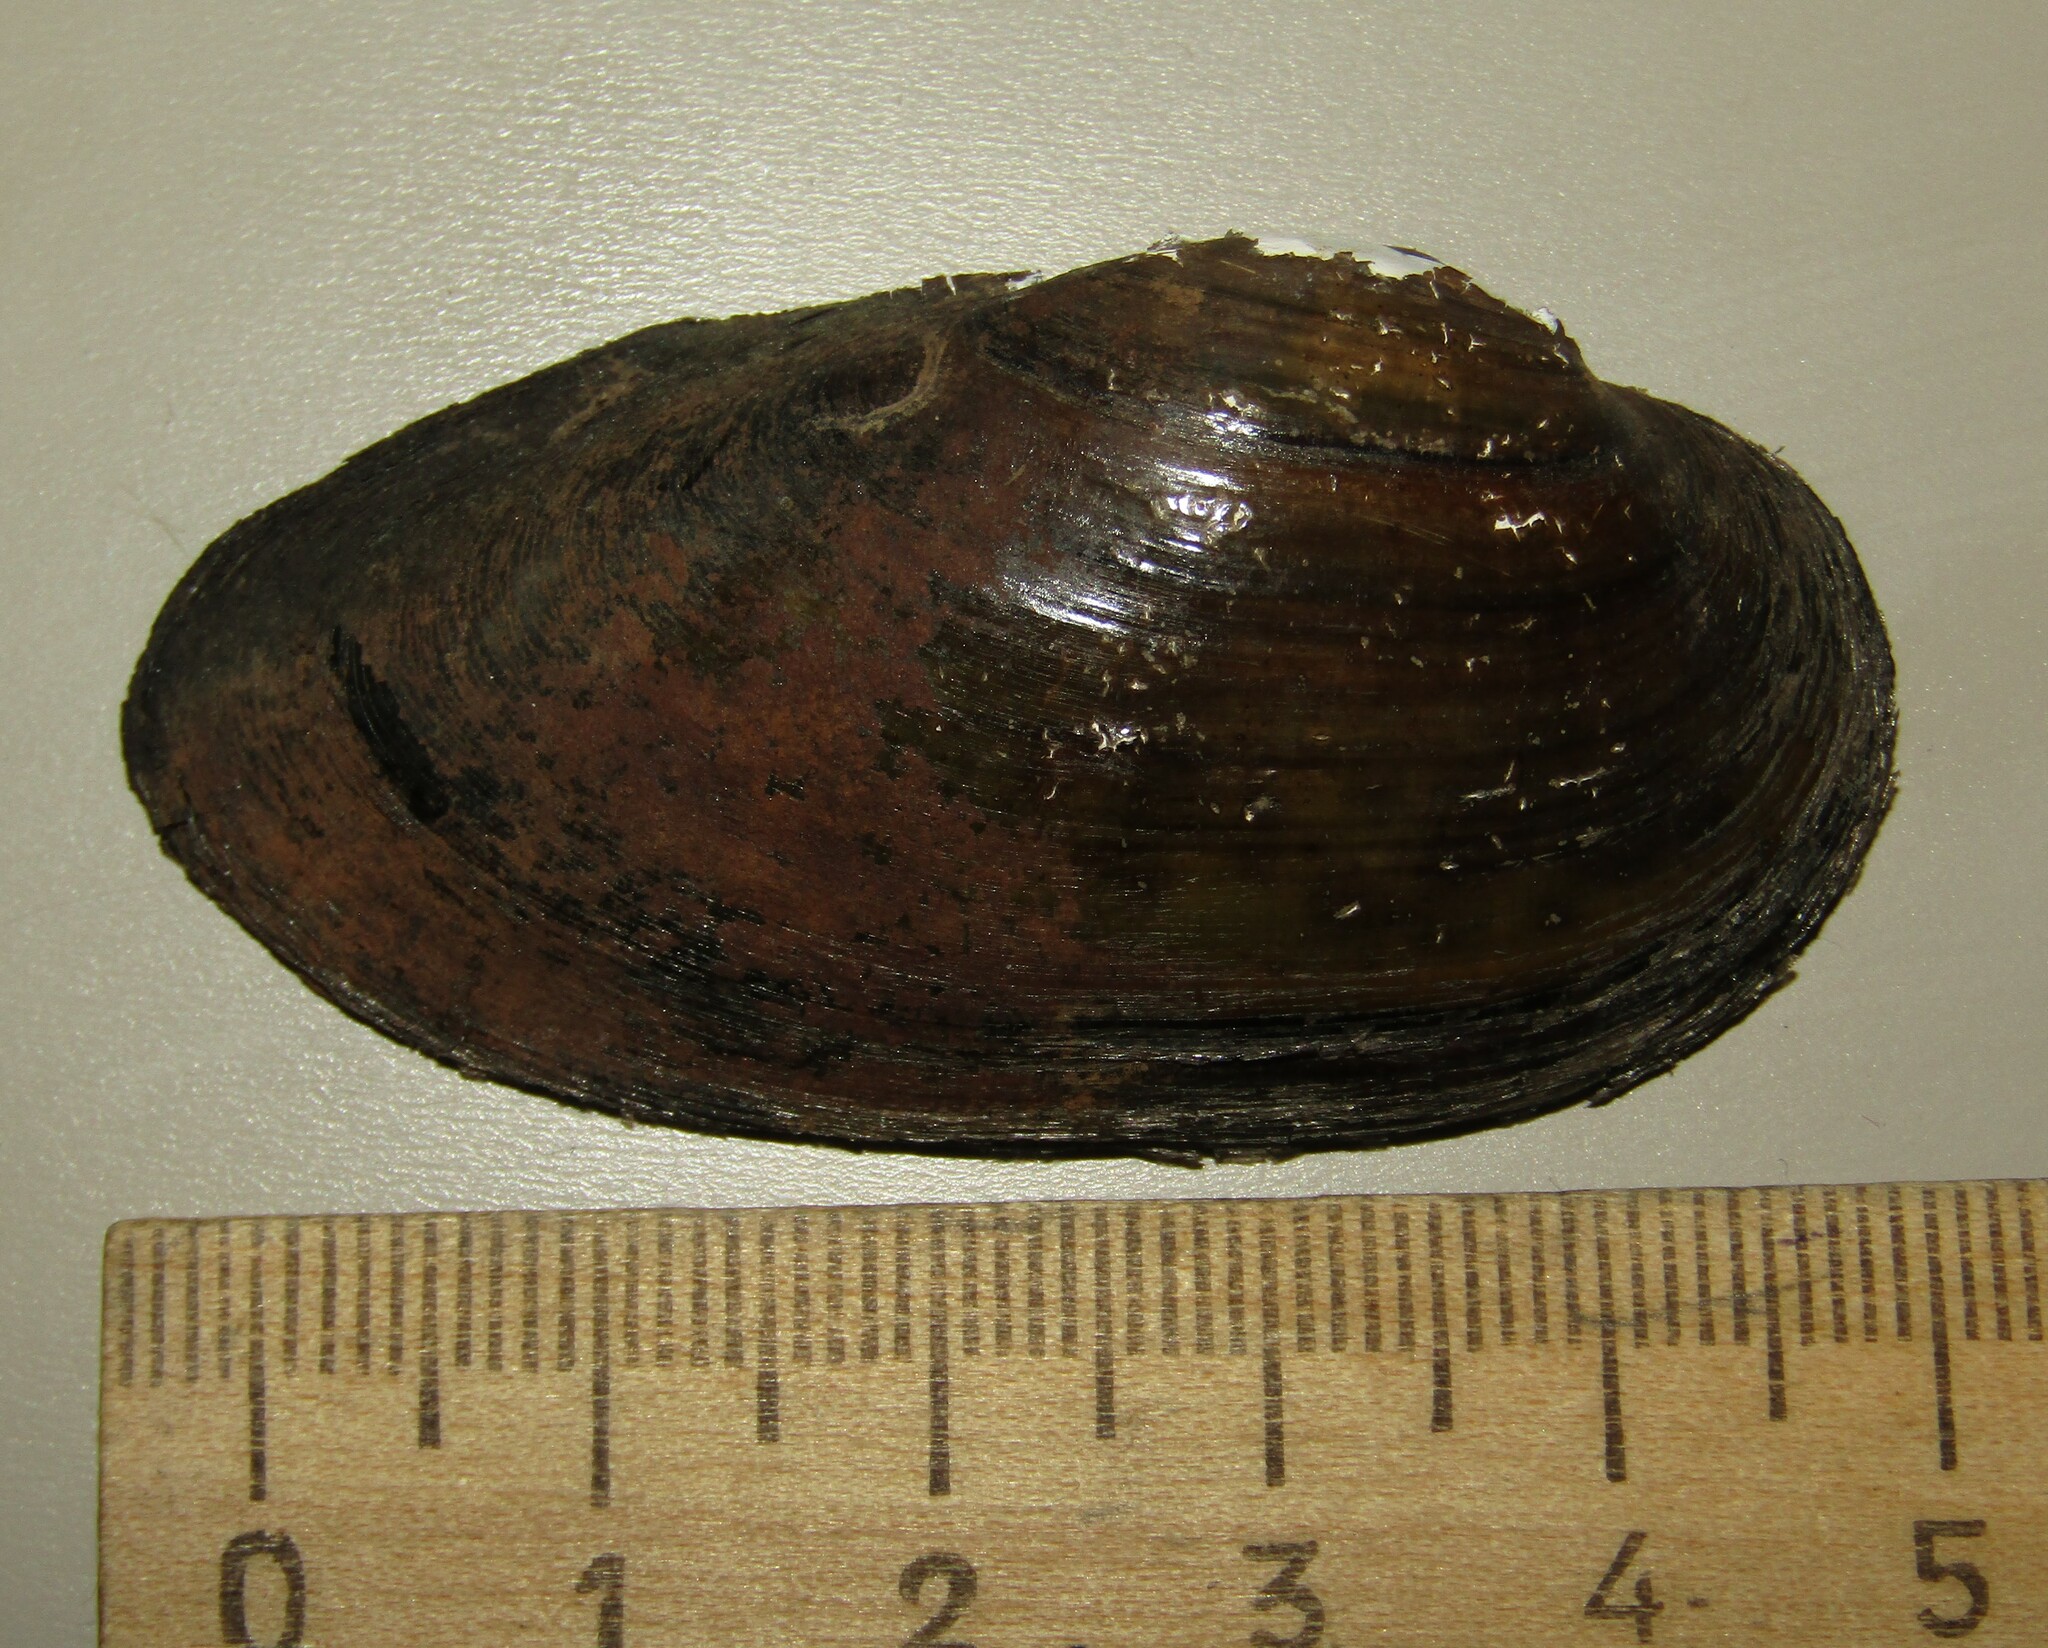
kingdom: Animalia
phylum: Mollusca
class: Bivalvia
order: Unionida
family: Unionidae
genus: Unio
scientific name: Unio tumidus
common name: Swollen river mussel
